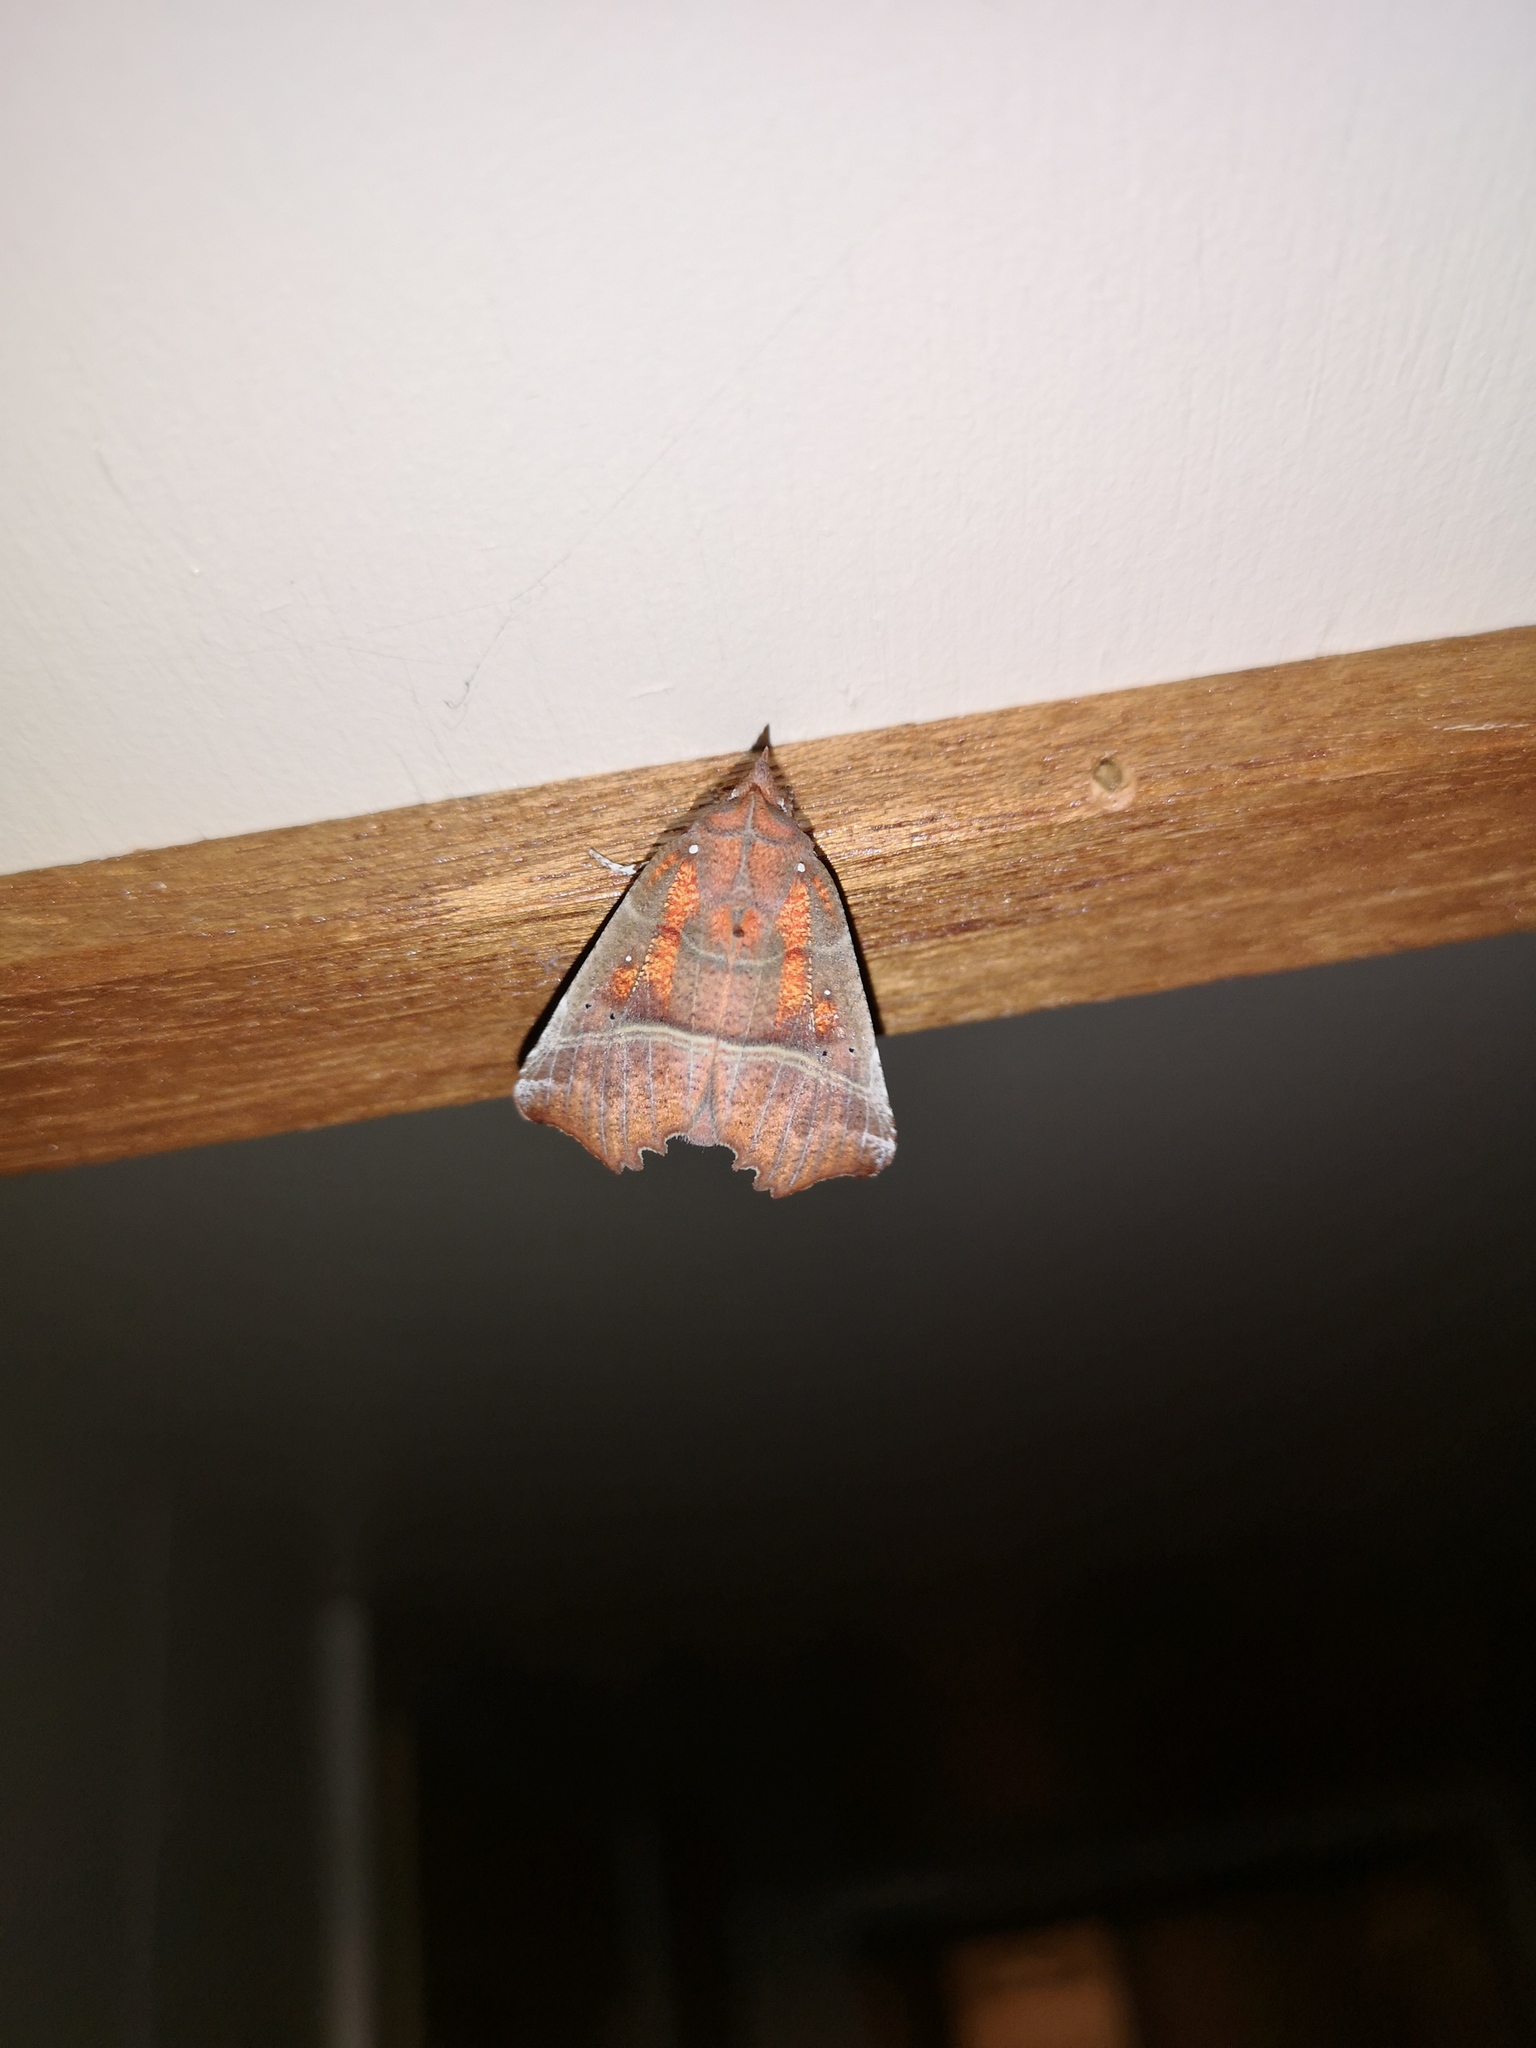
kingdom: Animalia
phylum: Arthropoda
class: Insecta
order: Lepidoptera
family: Erebidae
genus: Scoliopteryx
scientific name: Scoliopteryx libatrix
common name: Herald
